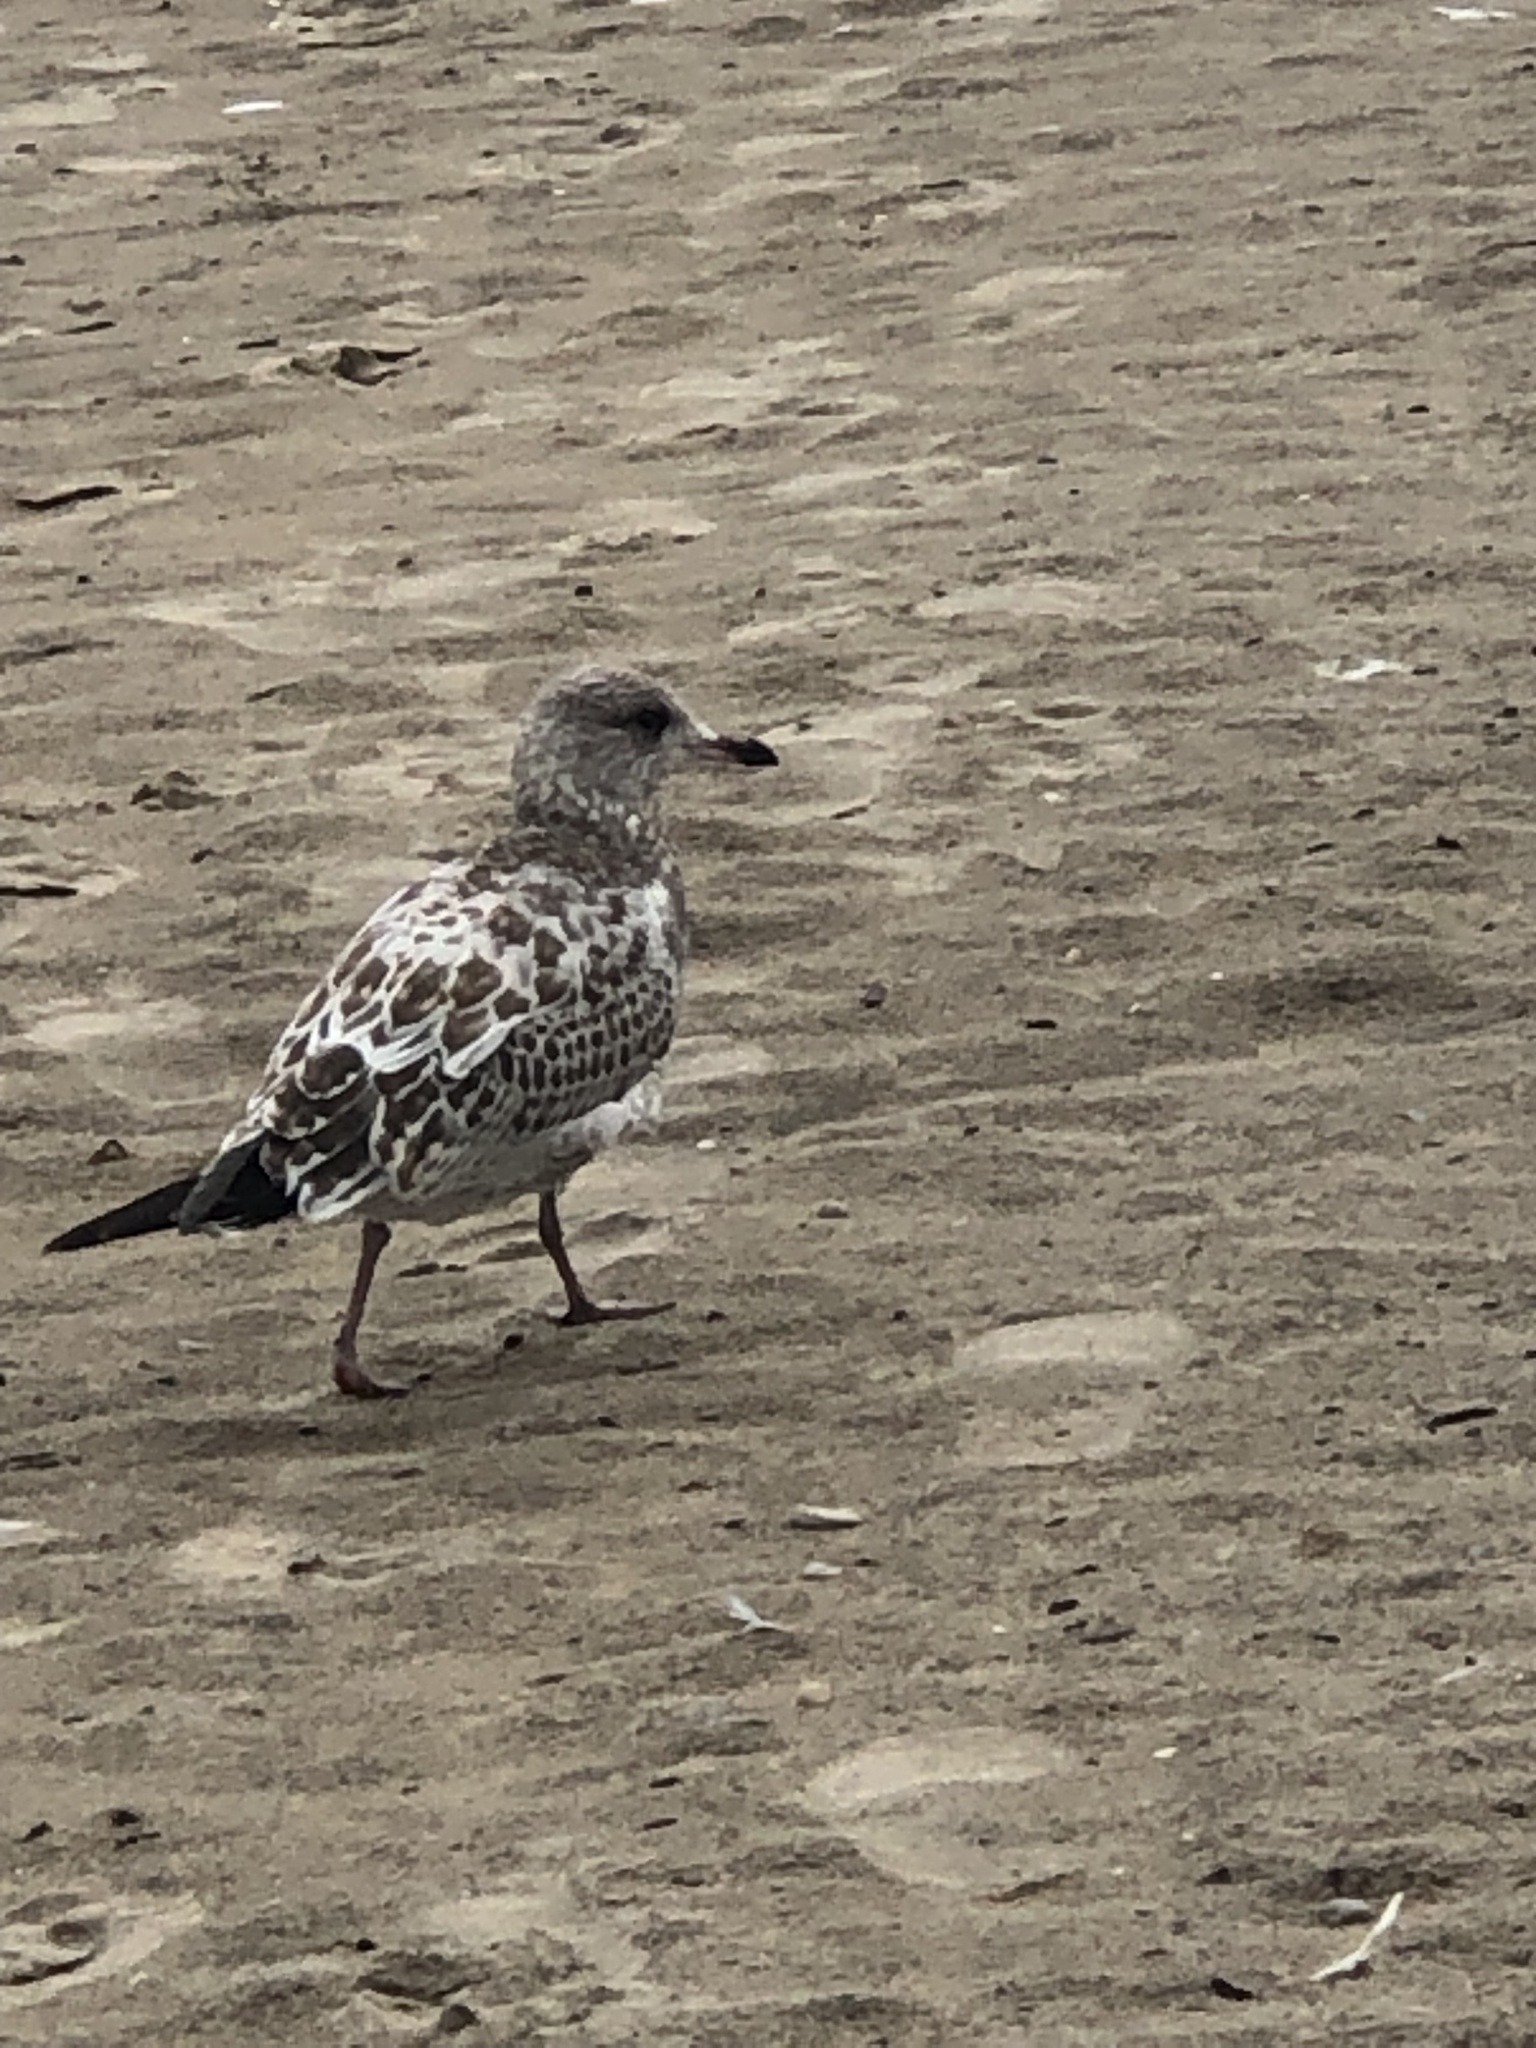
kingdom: Animalia
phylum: Chordata
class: Aves
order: Charadriiformes
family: Laridae
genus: Larus
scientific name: Larus delawarensis
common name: Ring-billed gull
